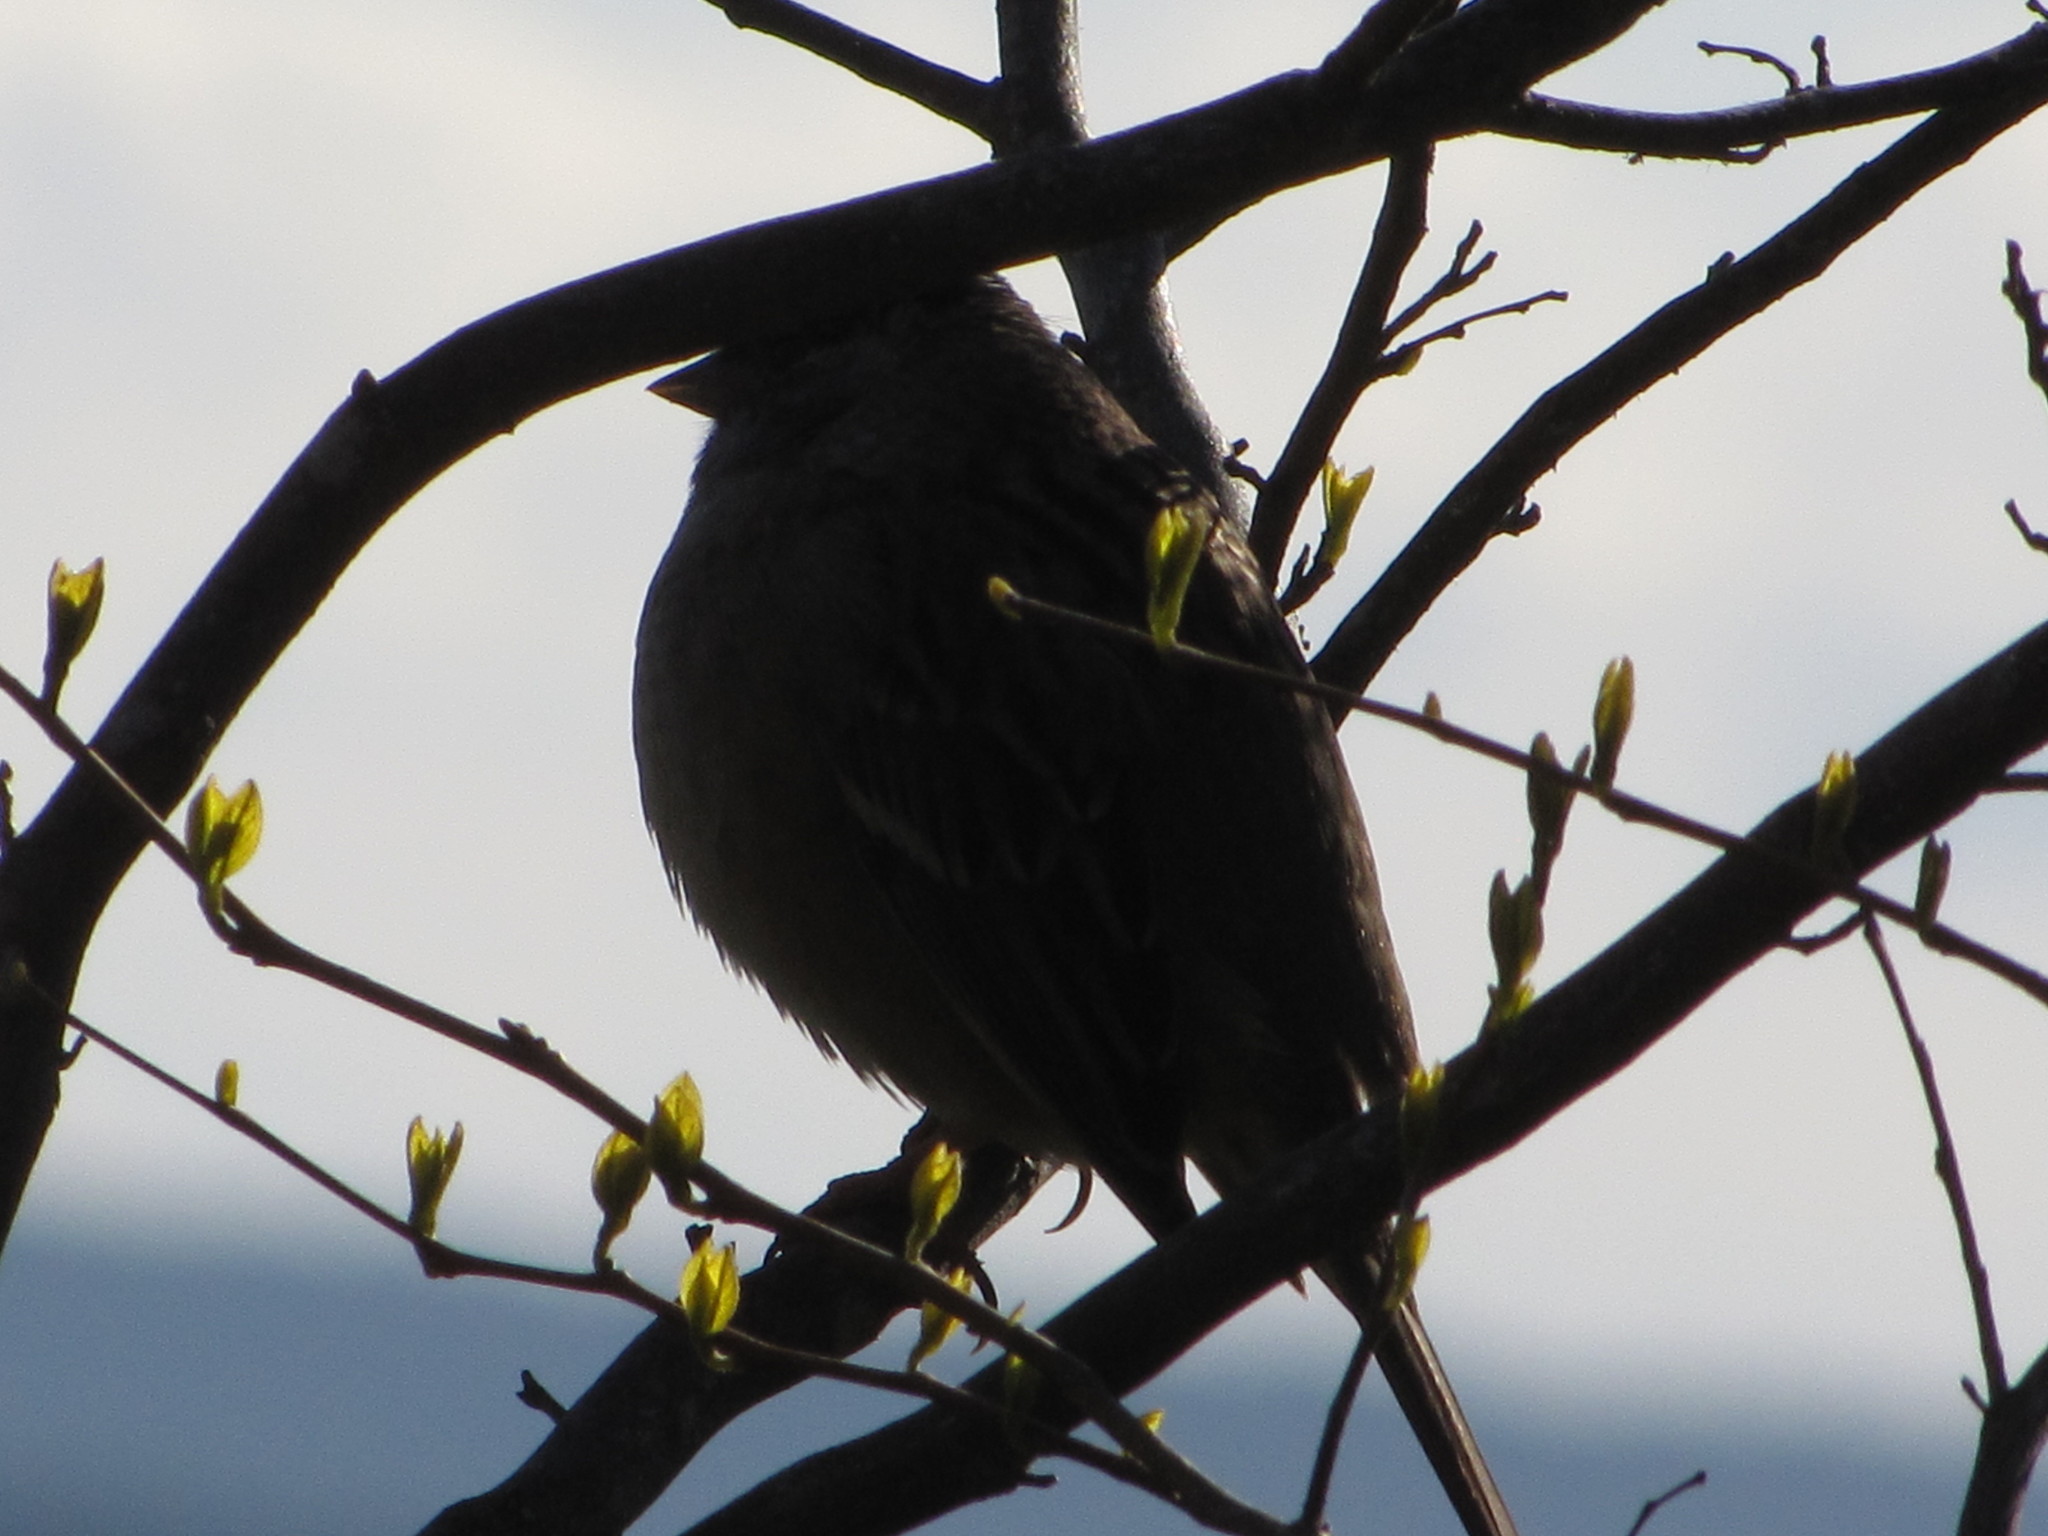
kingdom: Animalia
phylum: Chordata
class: Aves
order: Passeriformes
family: Passerellidae
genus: Zonotrichia
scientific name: Zonotrichia atricapilla
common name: Golden-crowned sparrow
